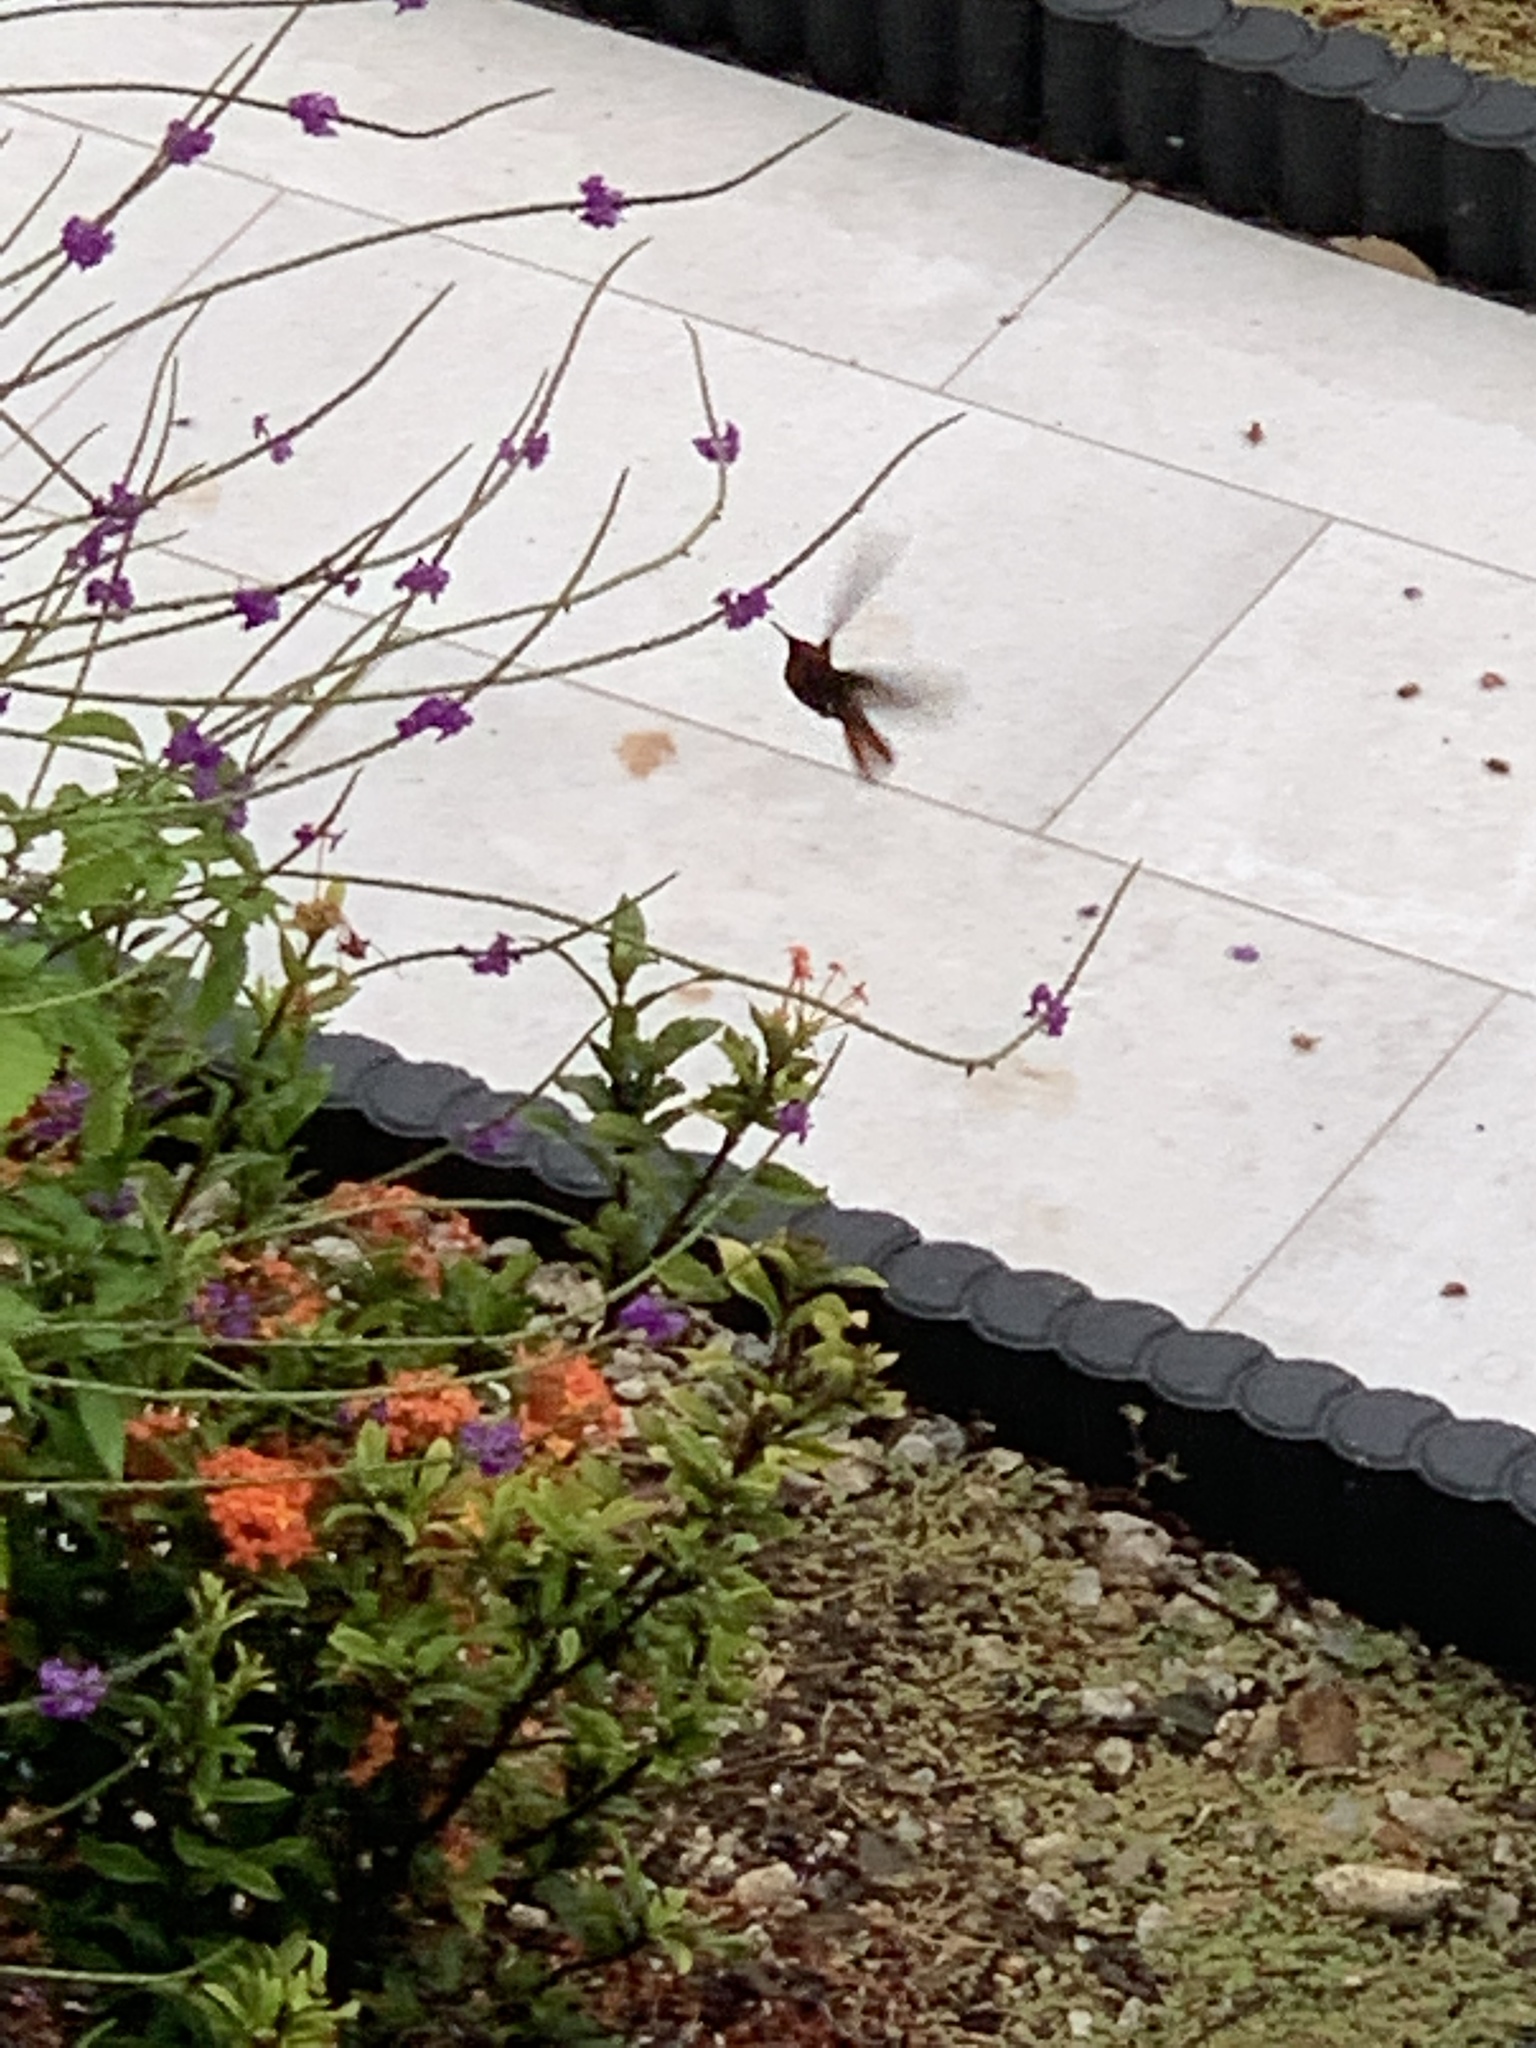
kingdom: Animalia
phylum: Chordata
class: Aves
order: Apodiformes
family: Trochilidae
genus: Chrysolampis
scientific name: Chrysolampis mosquitus
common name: Ruby-topaz hummingbird
